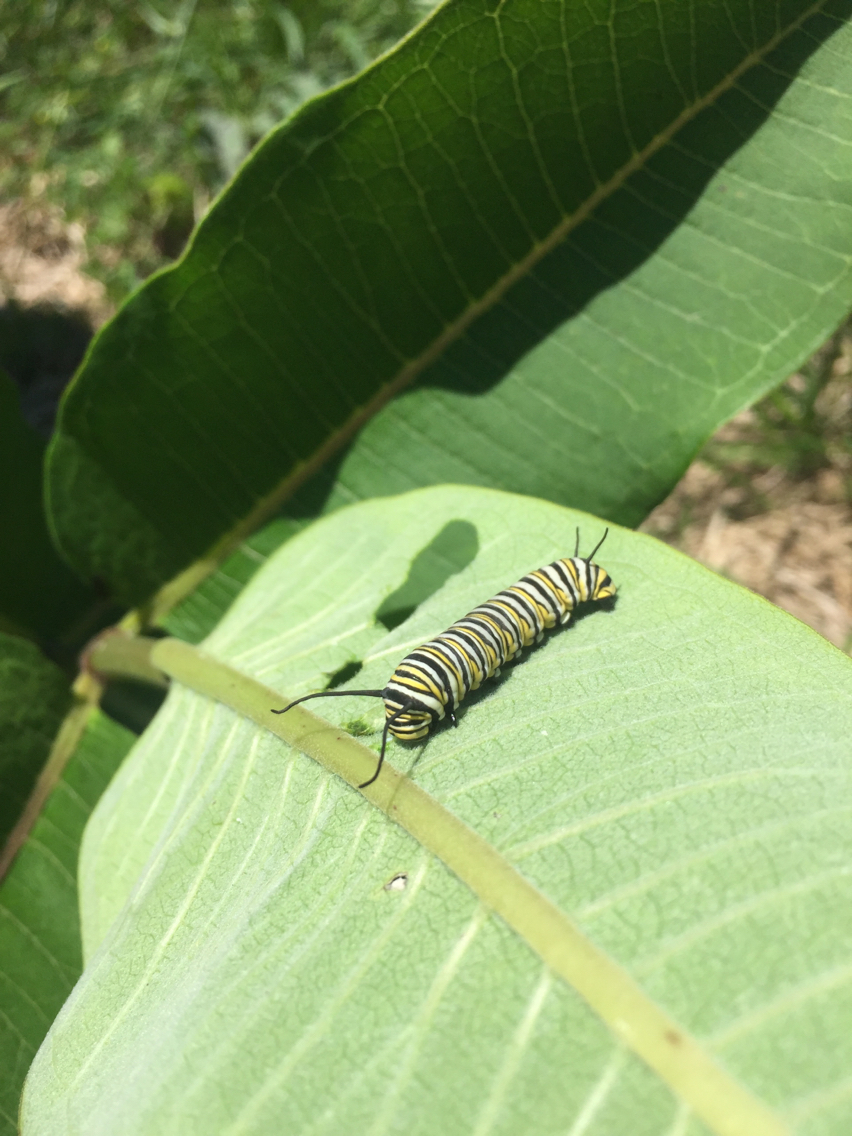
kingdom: Animalia
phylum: Arthropoda
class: Insecta
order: Lepidoptera
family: Nymphalidae
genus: Danaus
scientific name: Danaus plexippus
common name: Monarch
